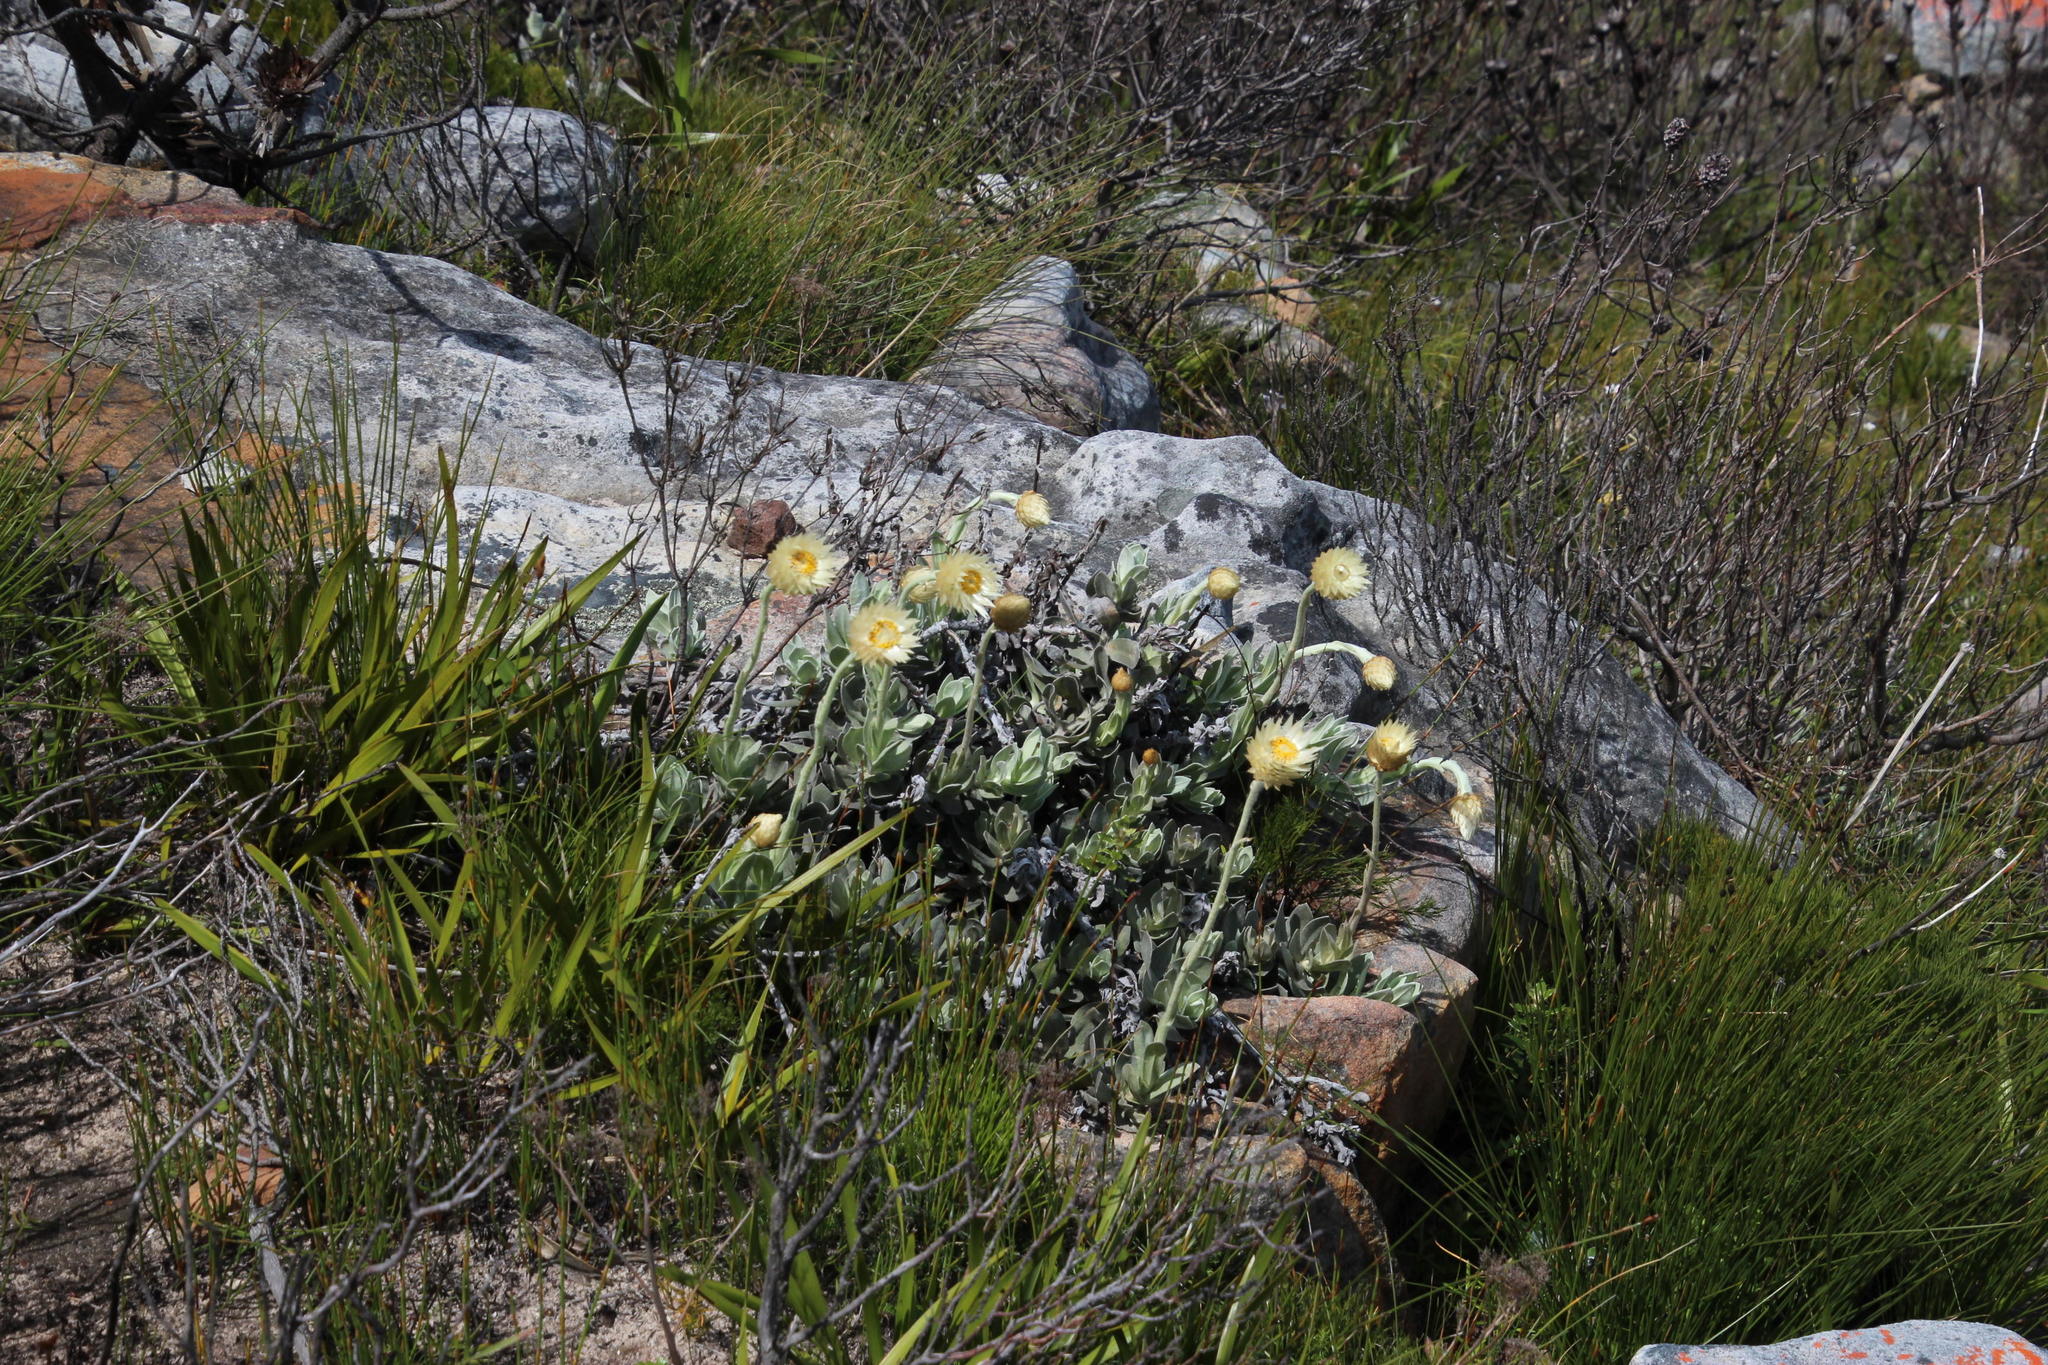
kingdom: Plantae
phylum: Tracheophyta
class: Magnoliopsida
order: Asterales
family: Asteraceae
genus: Syncarpha
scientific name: Syncarpha speciosissima
